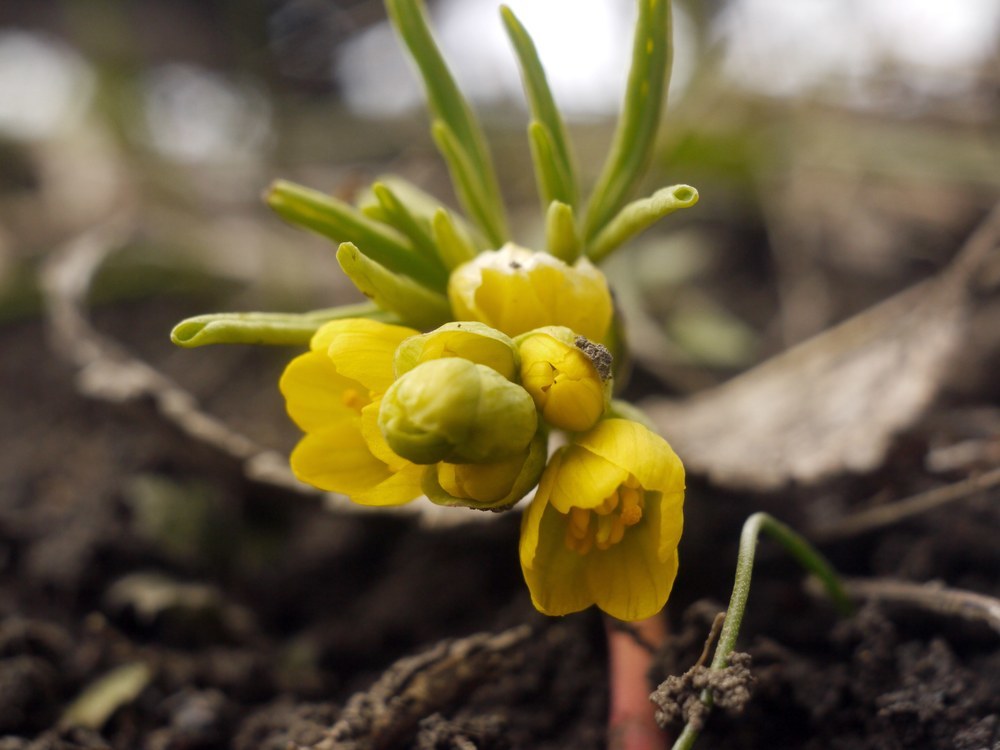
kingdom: Plantae
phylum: Tracheophyta
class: Magnoliopsida
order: Ranunculales
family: Berberidaceae
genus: Gymnospermium
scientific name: Gymnospermium odessanum
